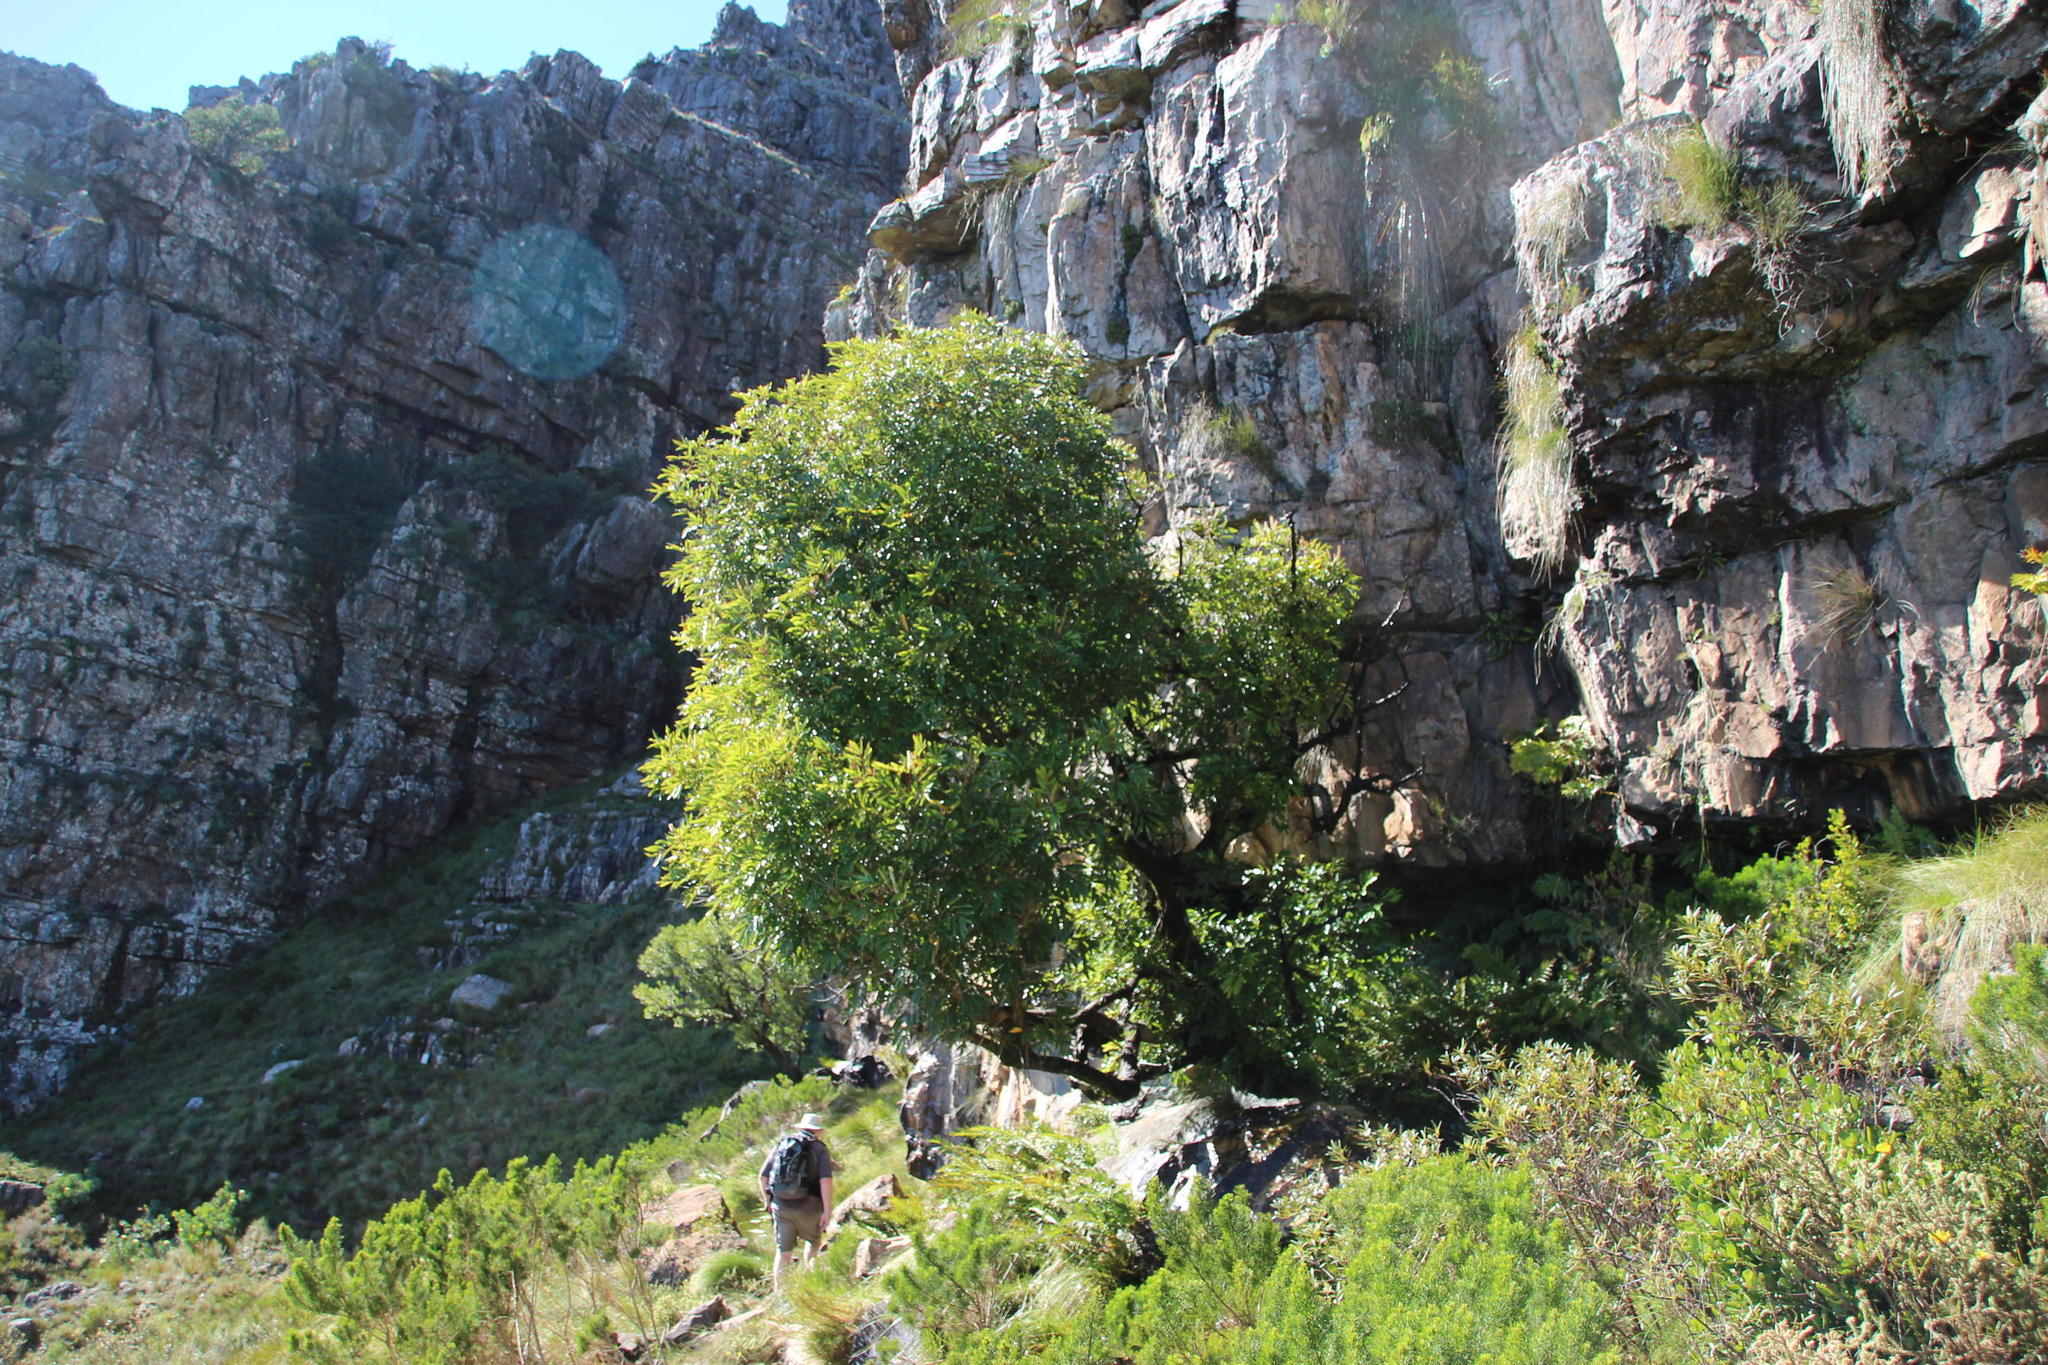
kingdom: Plantae
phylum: Tracheophyta
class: Magnoliopsida
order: Oxalidales
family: Cunoniaceae
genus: Cunonia
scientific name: Cunonia capensis
